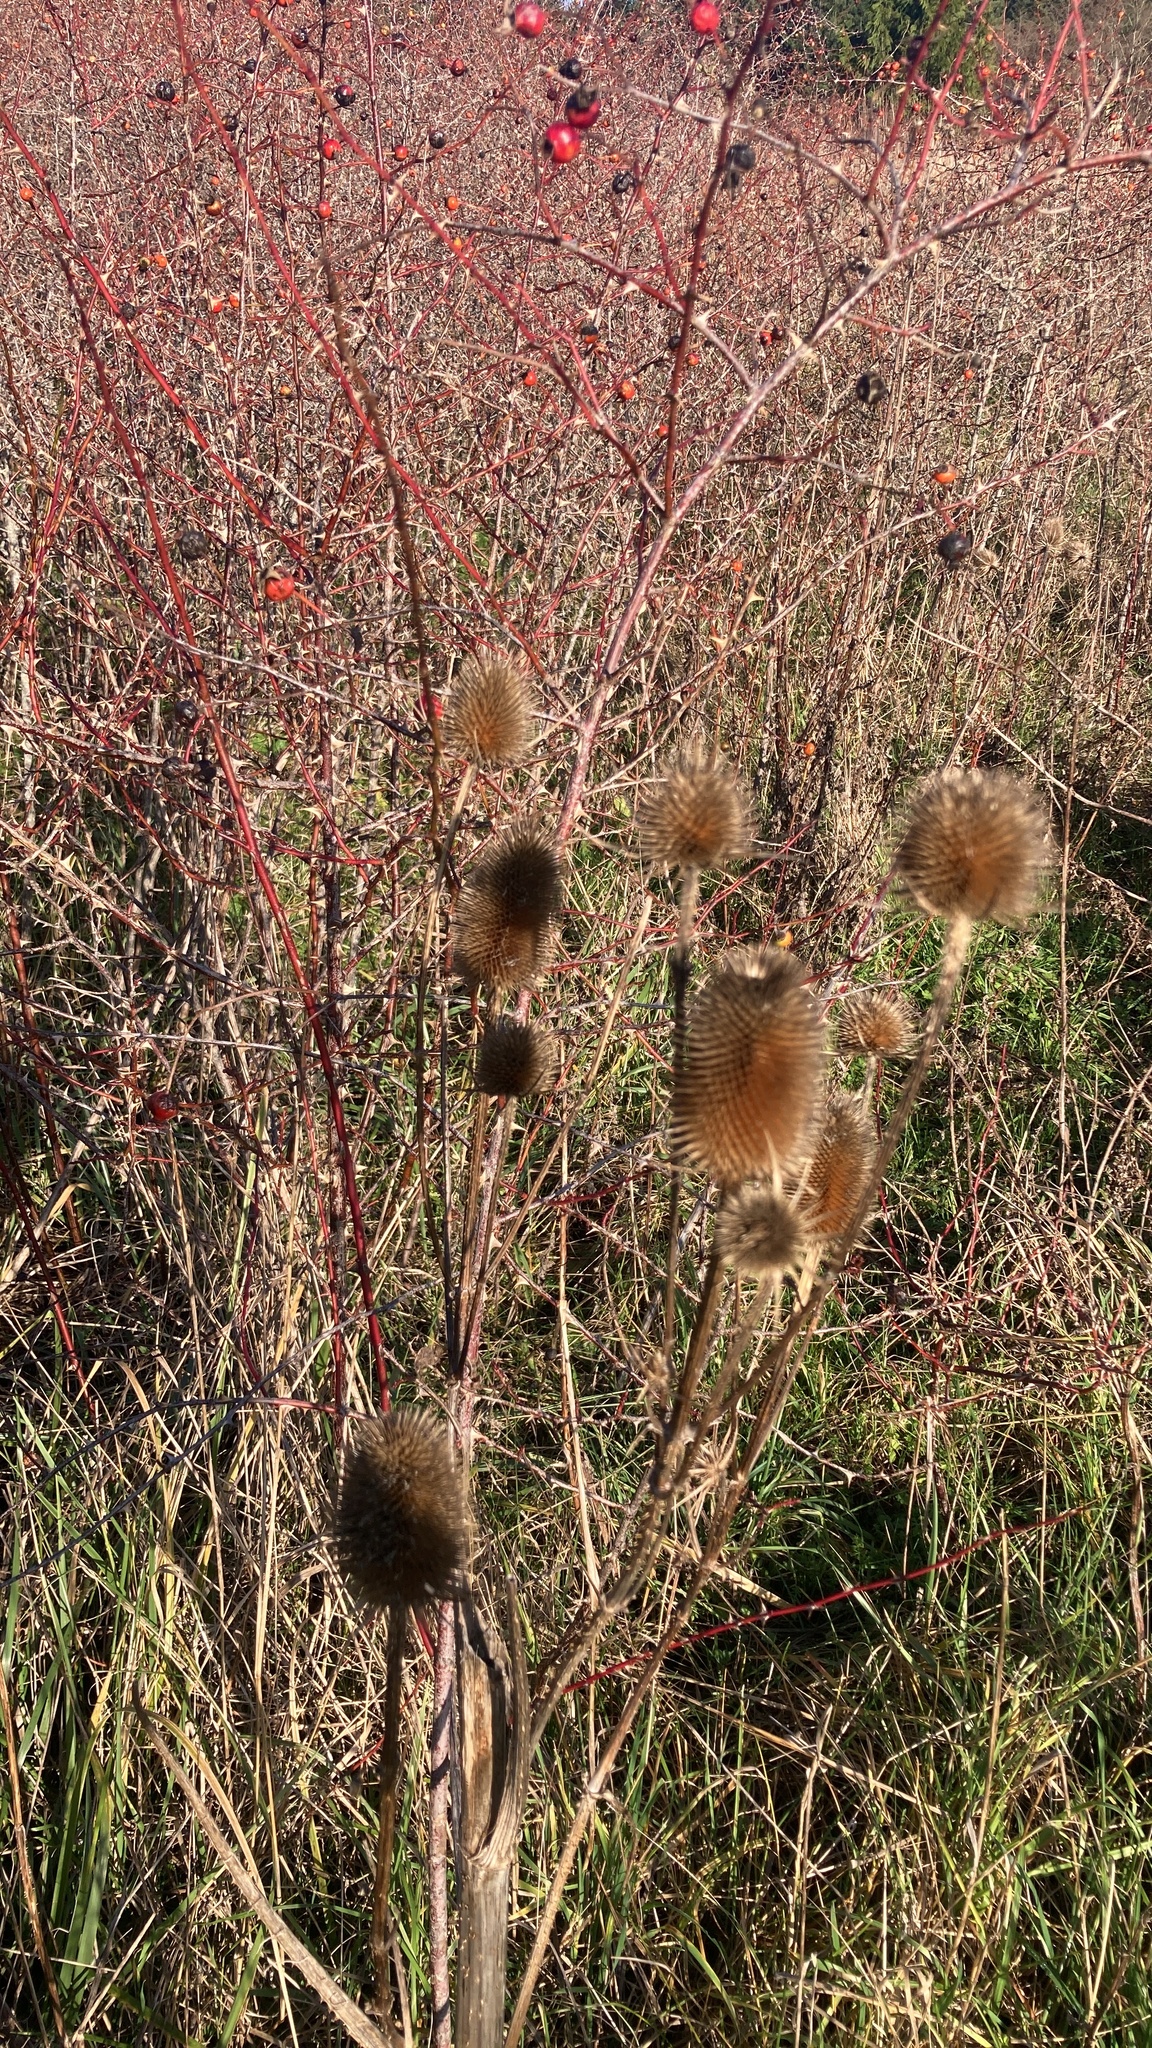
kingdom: Plantae
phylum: Tracheophyta
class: Magnoliopsida
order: Dipsacales
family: Caprifoliaceae
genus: Dipsacus
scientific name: Dipsacus fullonum
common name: Teasel
